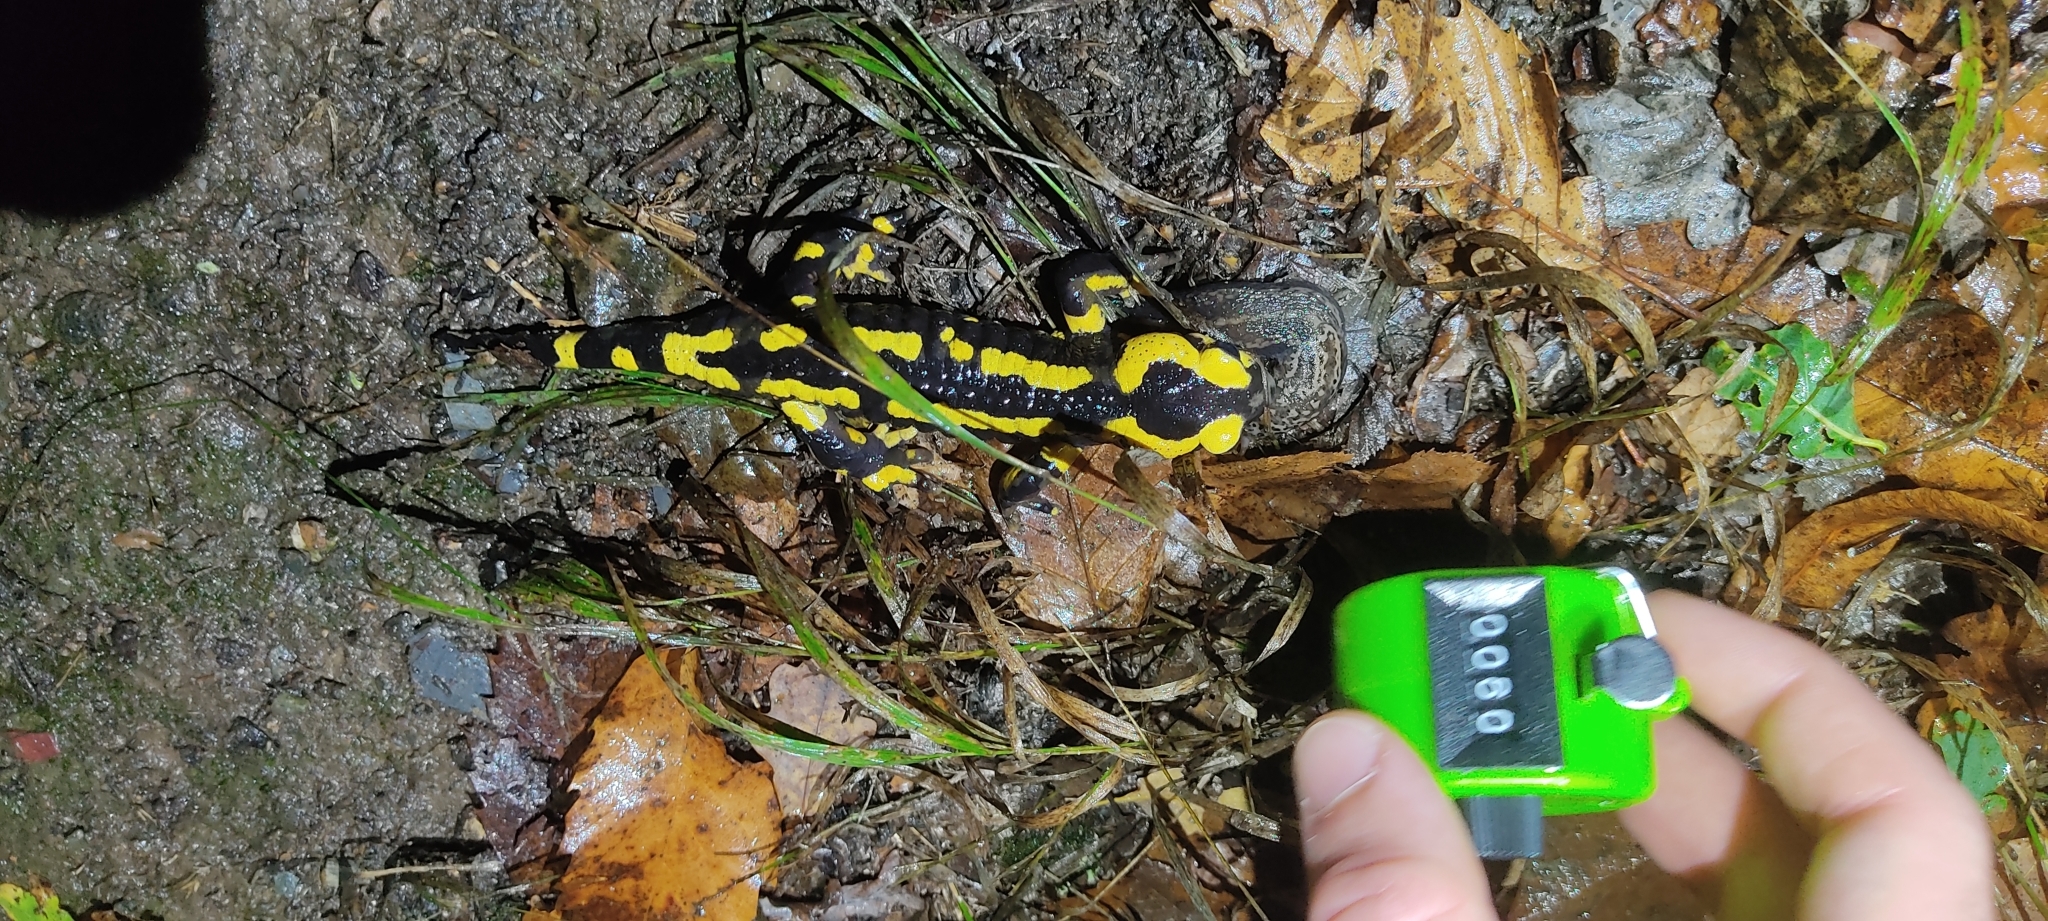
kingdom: Animalia
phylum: Chordata
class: Amphibia
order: Caudata
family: Salamandridae
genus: Salamandra
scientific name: Salamandra salamandra
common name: Fire salamander
